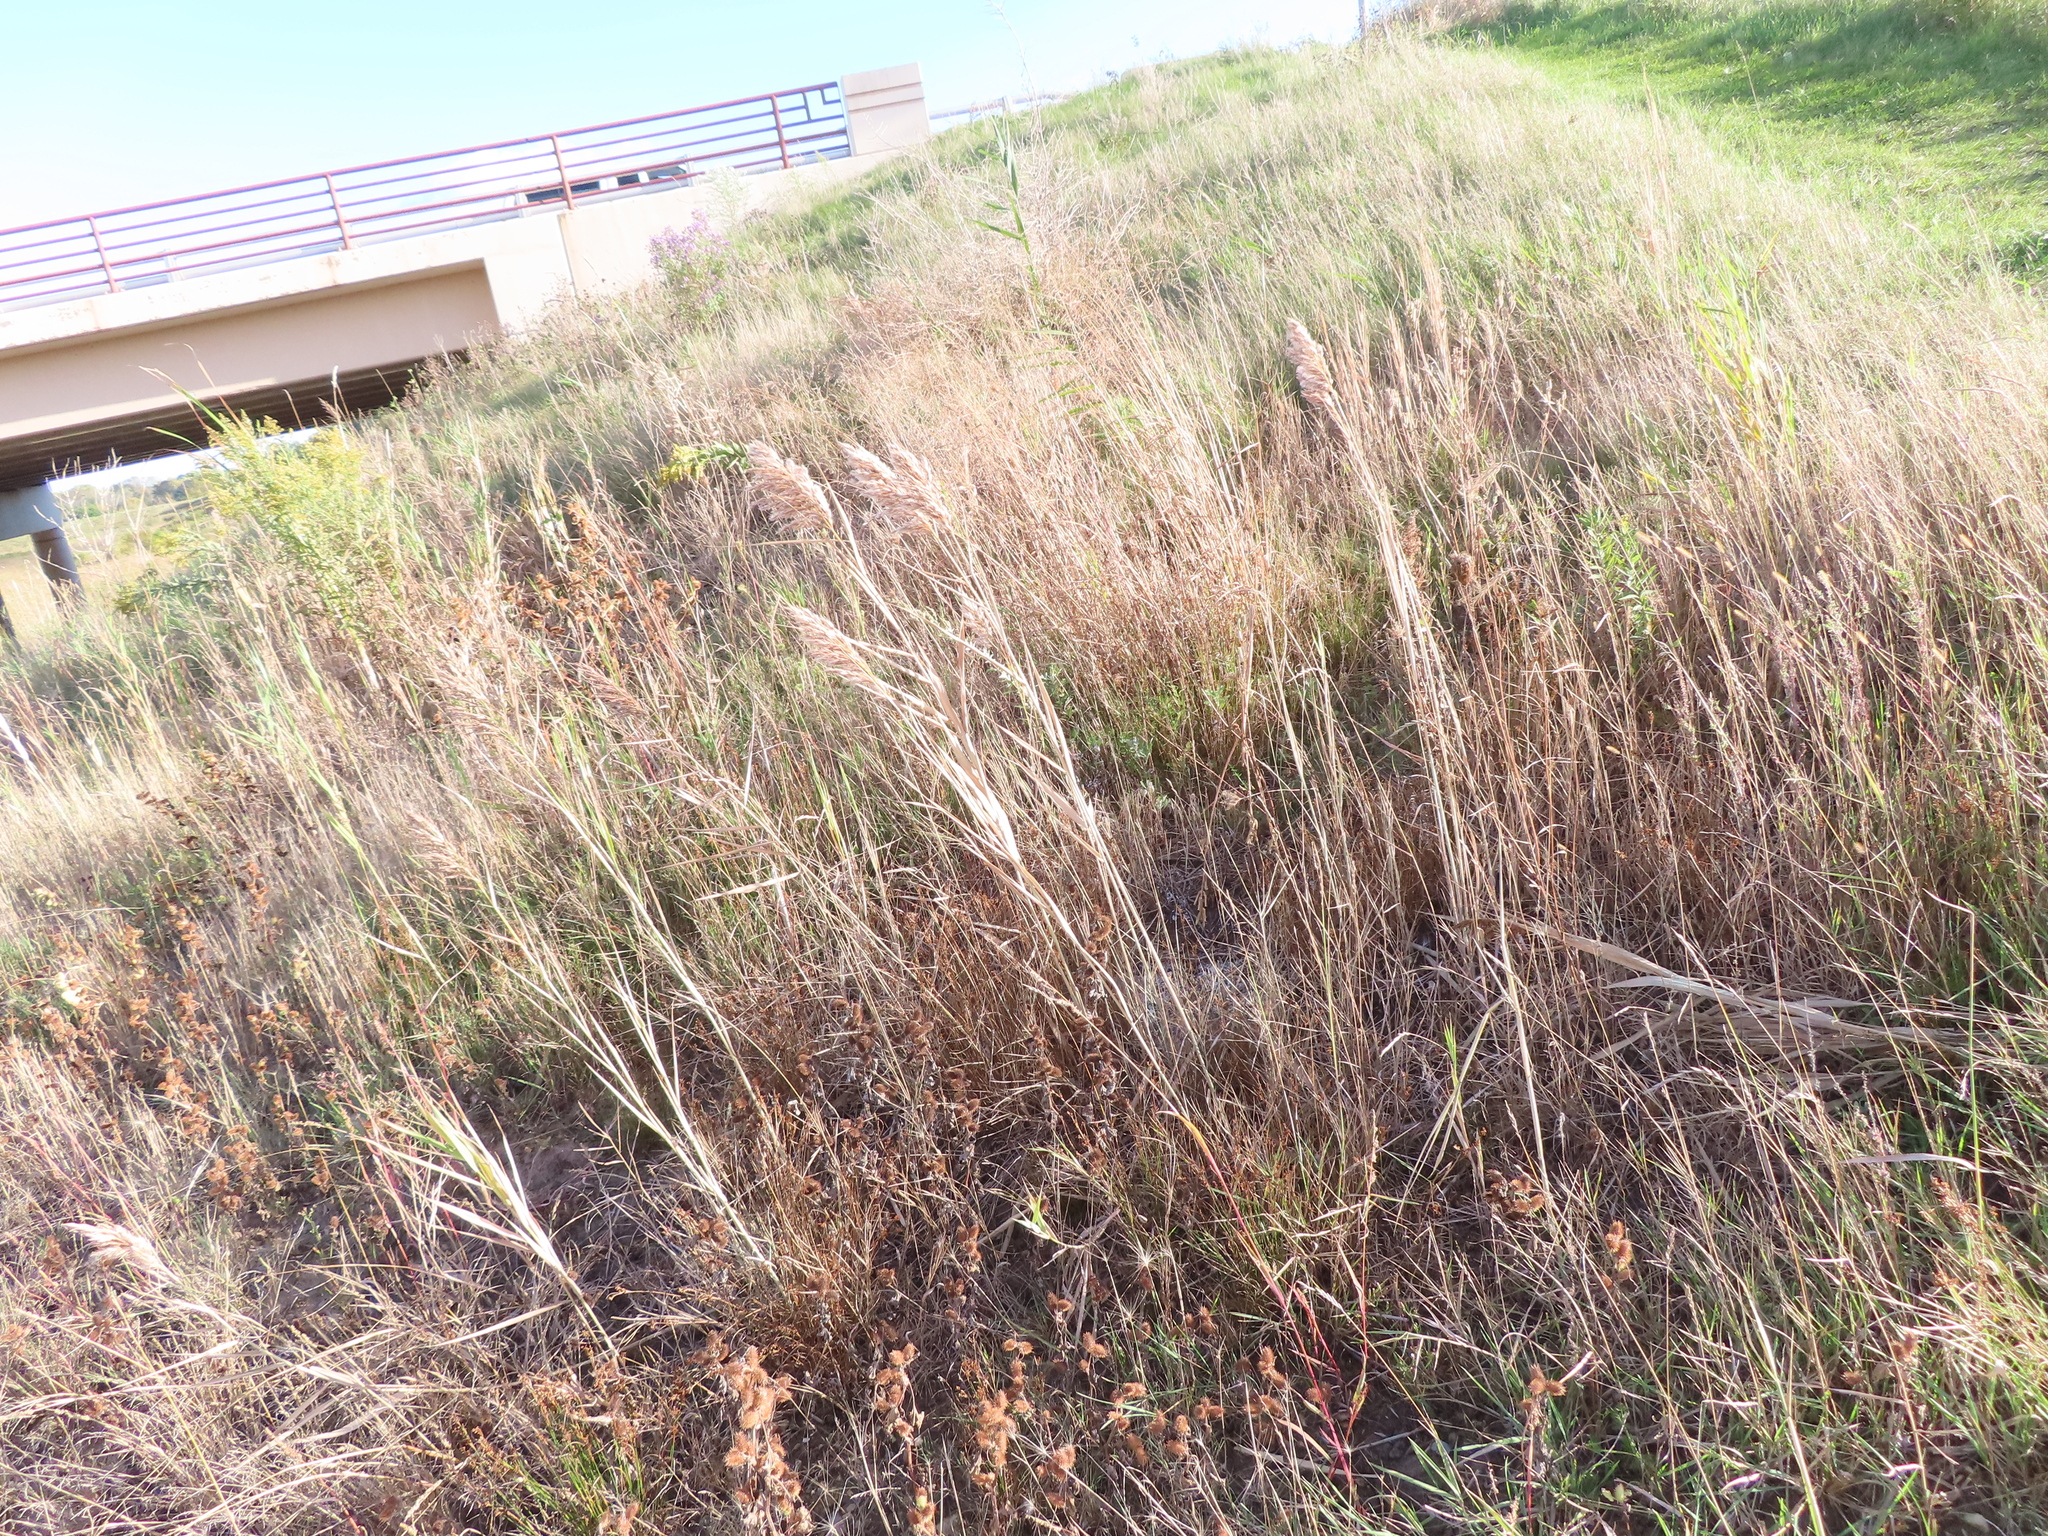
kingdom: Plantae
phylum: Tracheophyta
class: Liliopsida
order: Poales
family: Poaceae
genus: Phragmites
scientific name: Phragmites australis
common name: Common reed
